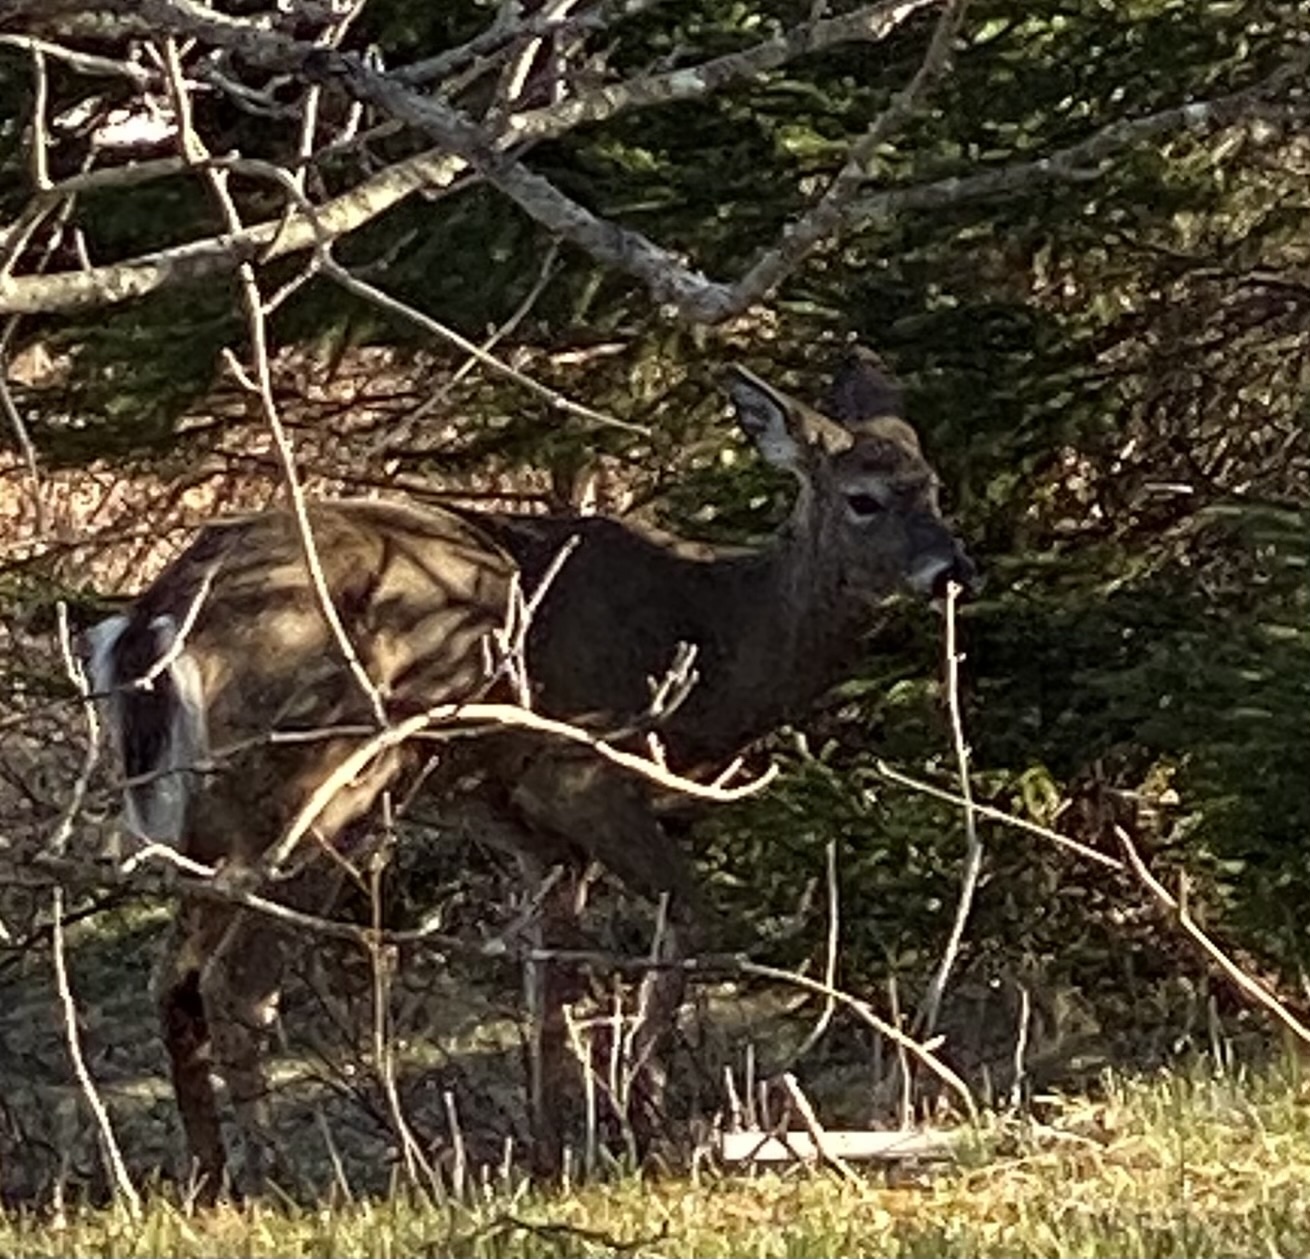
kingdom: Animalia
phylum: Chordata
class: Mammalia
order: Artiodactyla
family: Cervidae
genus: Odocoileus
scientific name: Odocoileus virginianus
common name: White-tailed deer
